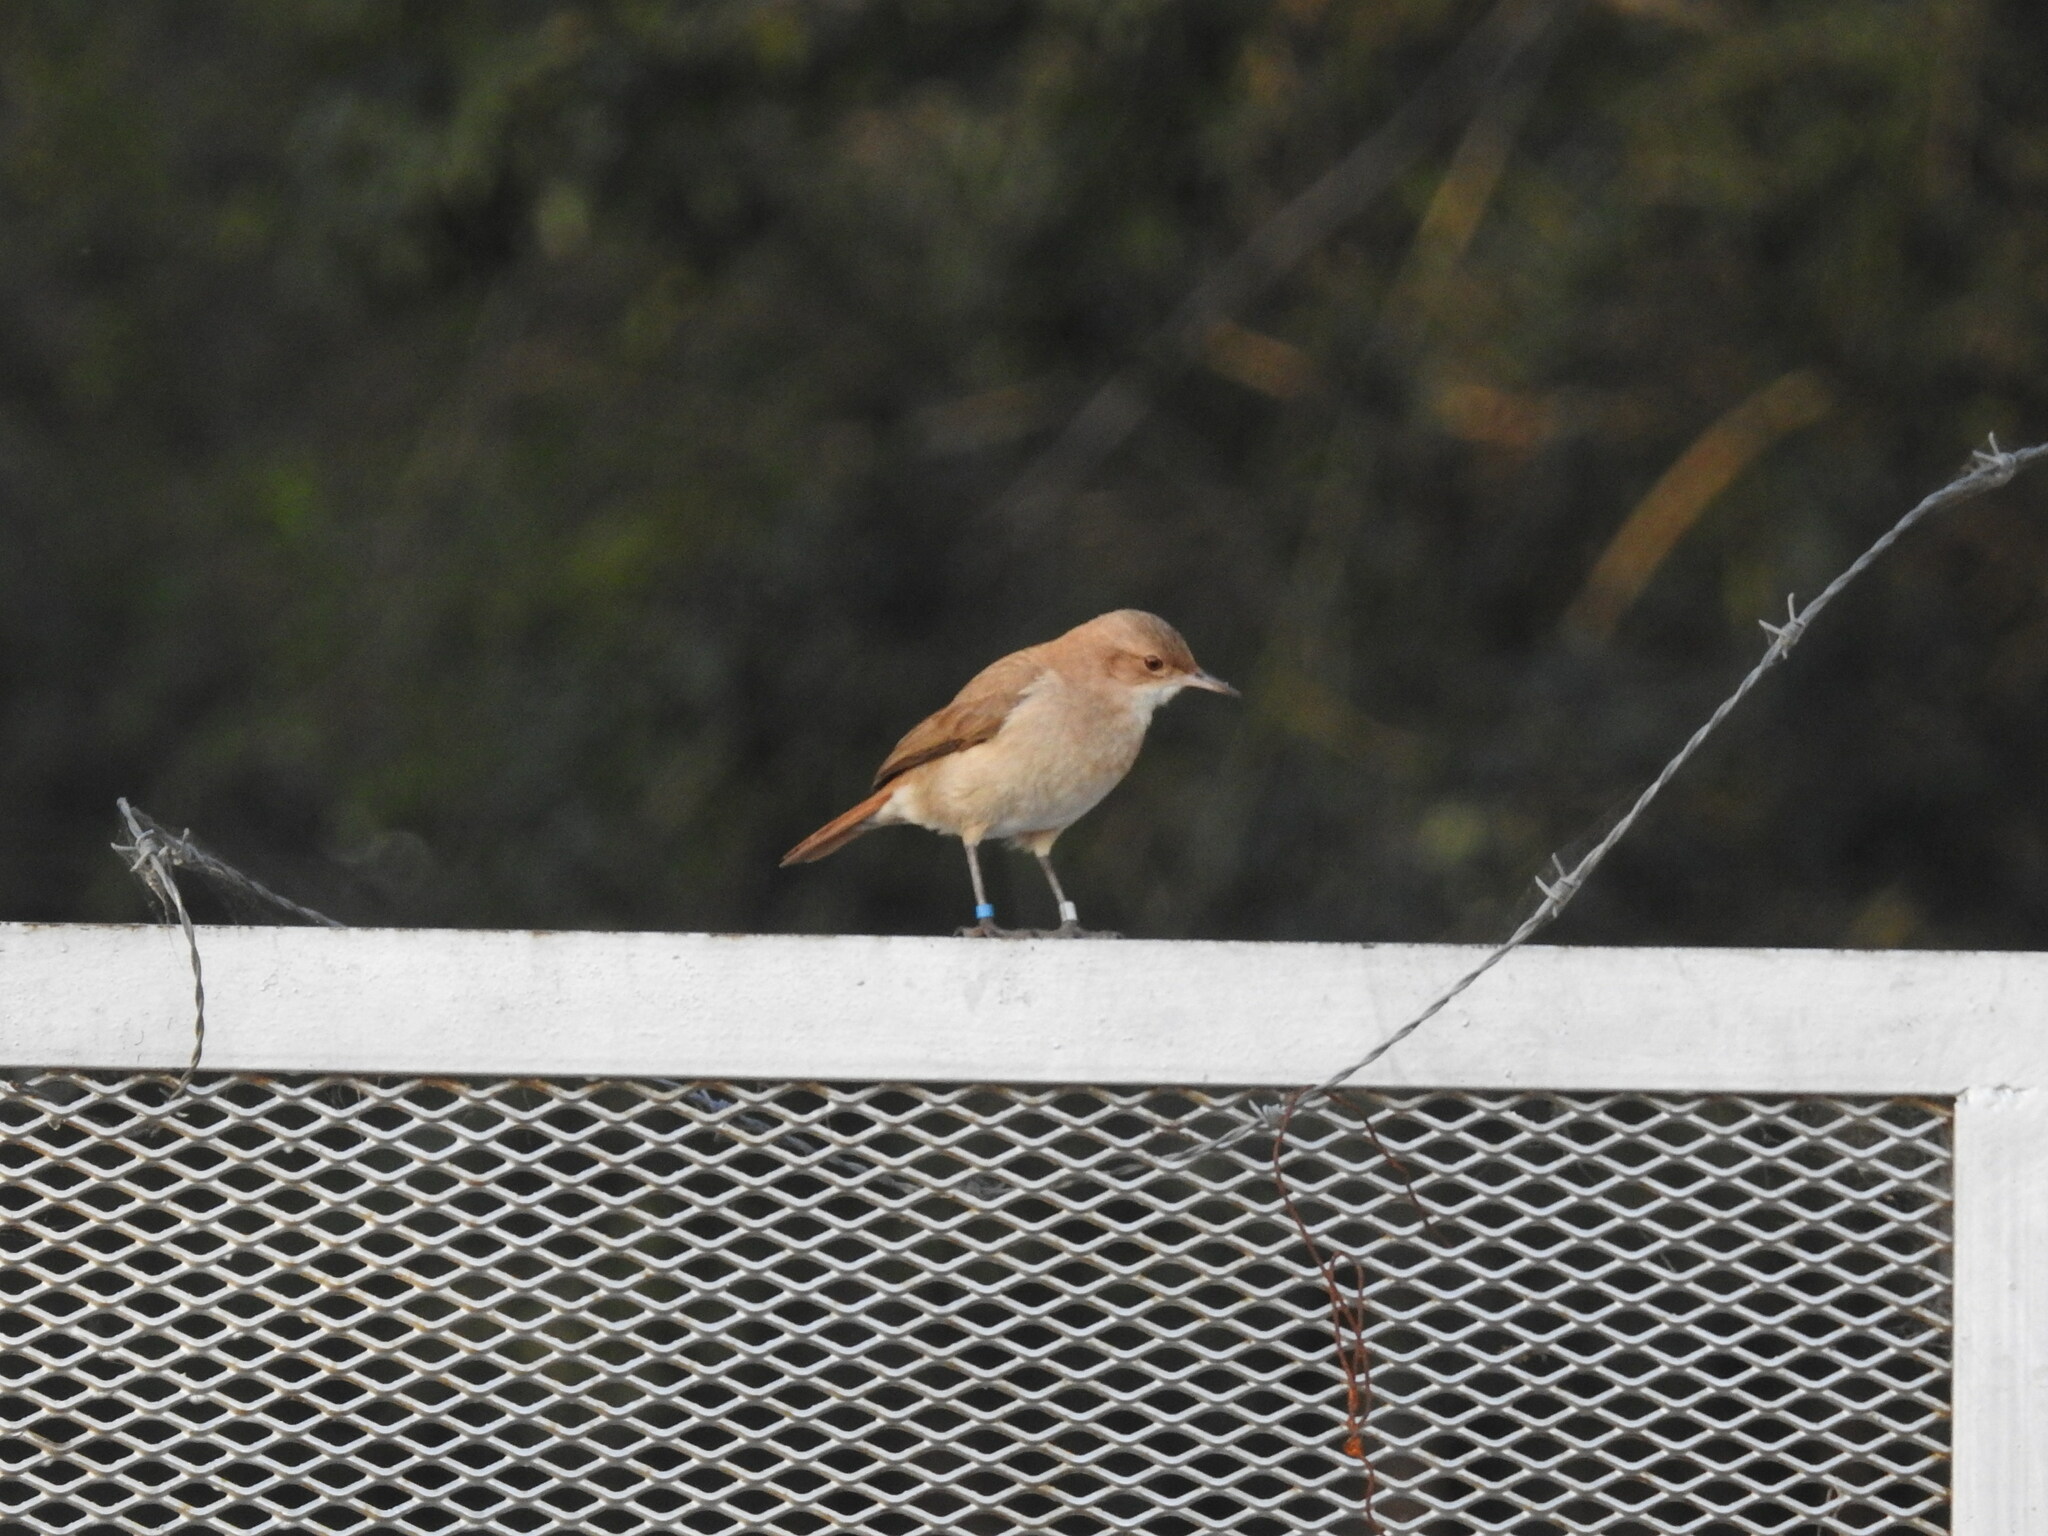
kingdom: Animalia
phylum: Chordata
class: Aves
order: Passeriformes
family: Furnariidae
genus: Furnarius
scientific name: Furnarius rufus
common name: Rufous hornero
